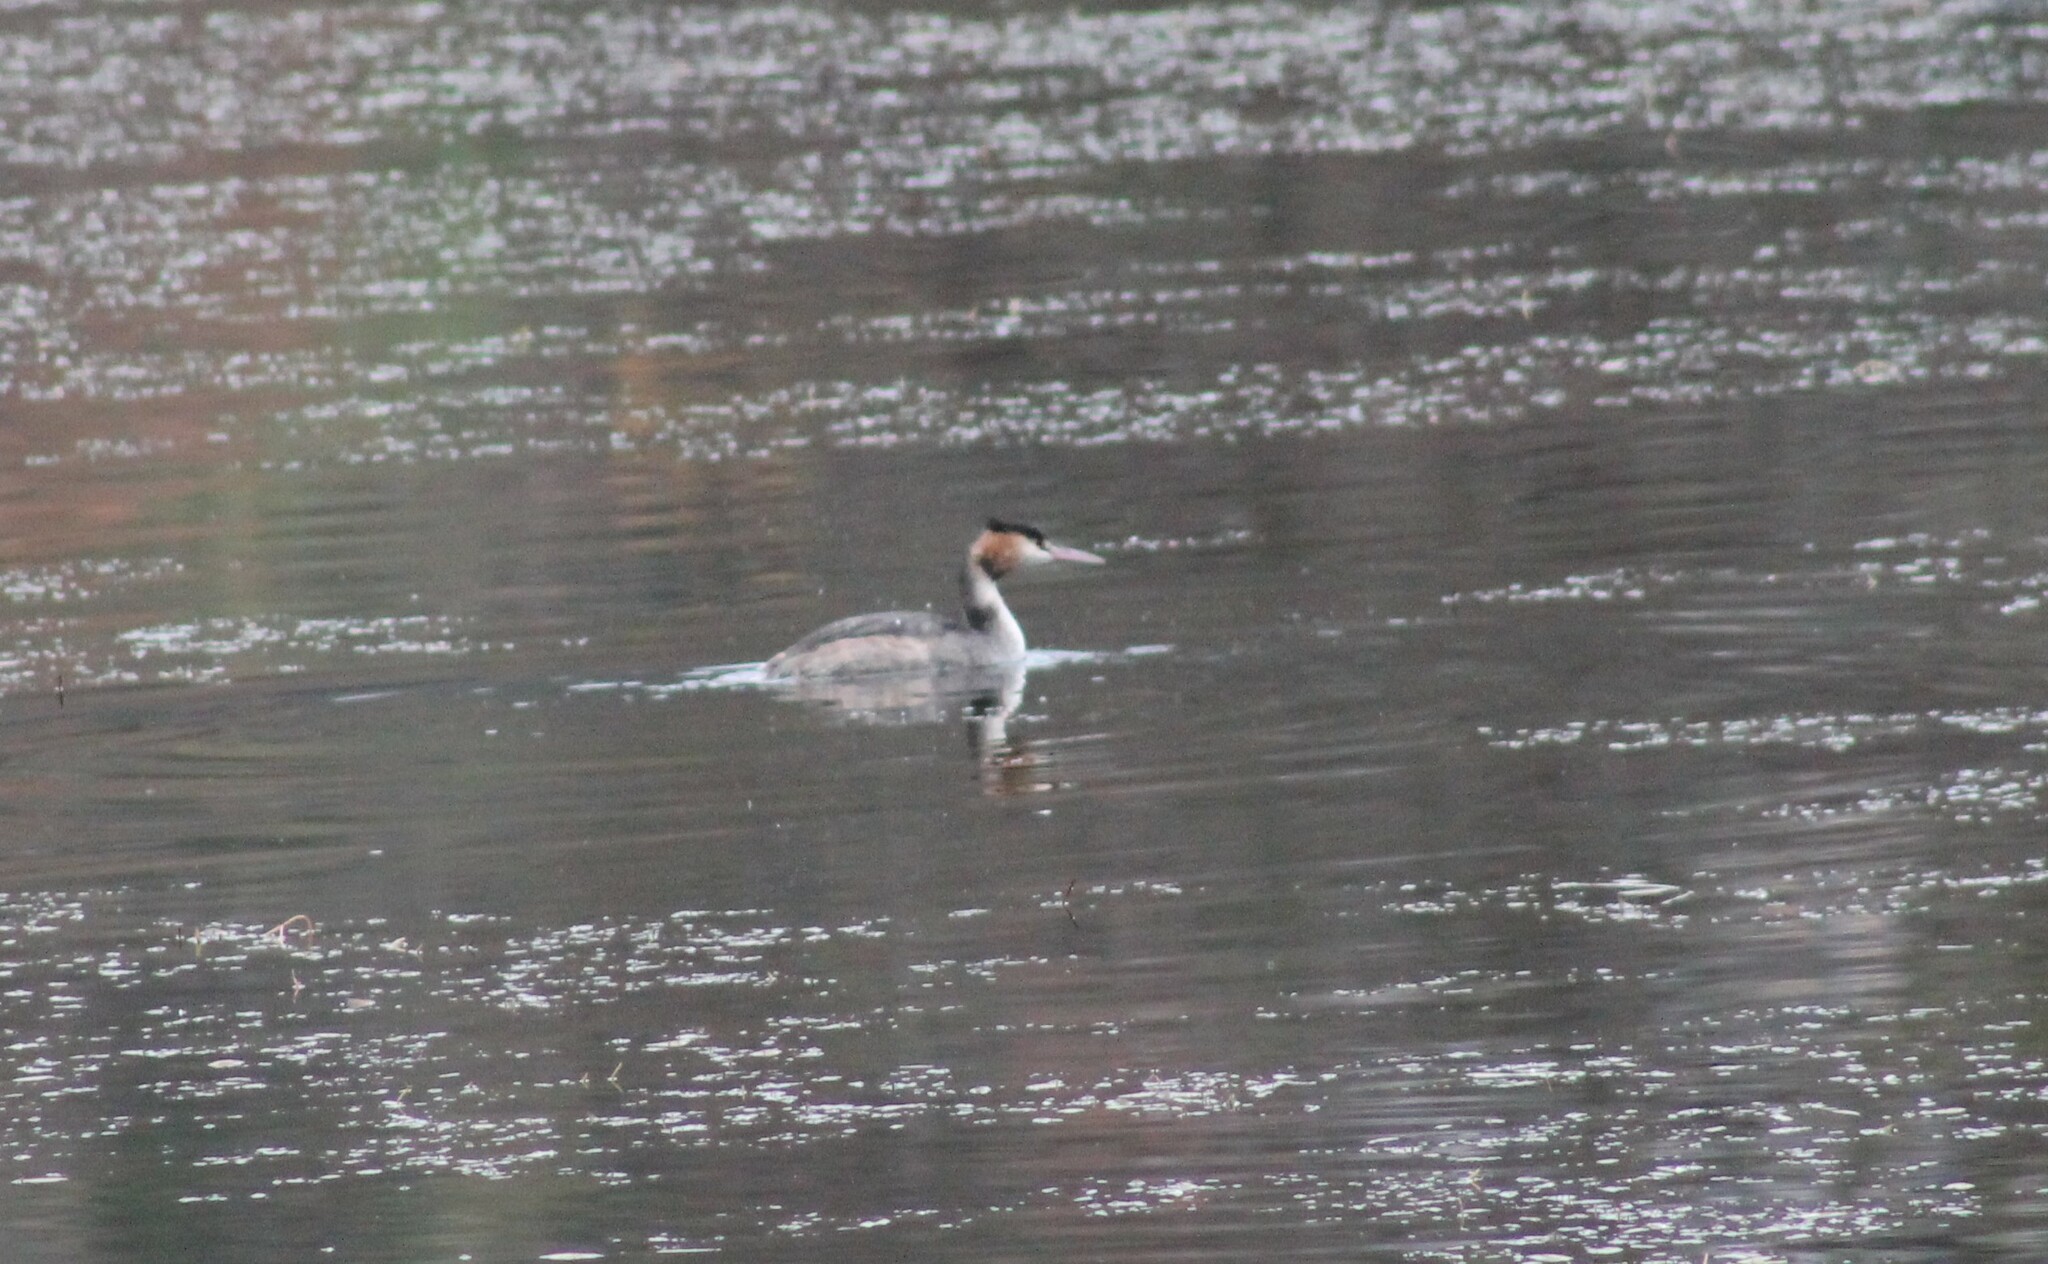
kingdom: Animalia
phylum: Chordata
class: Aves
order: Podicipediformes
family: Podicipedidae
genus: Podiceps
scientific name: Podiceps cristatus
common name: Great crested grebe
